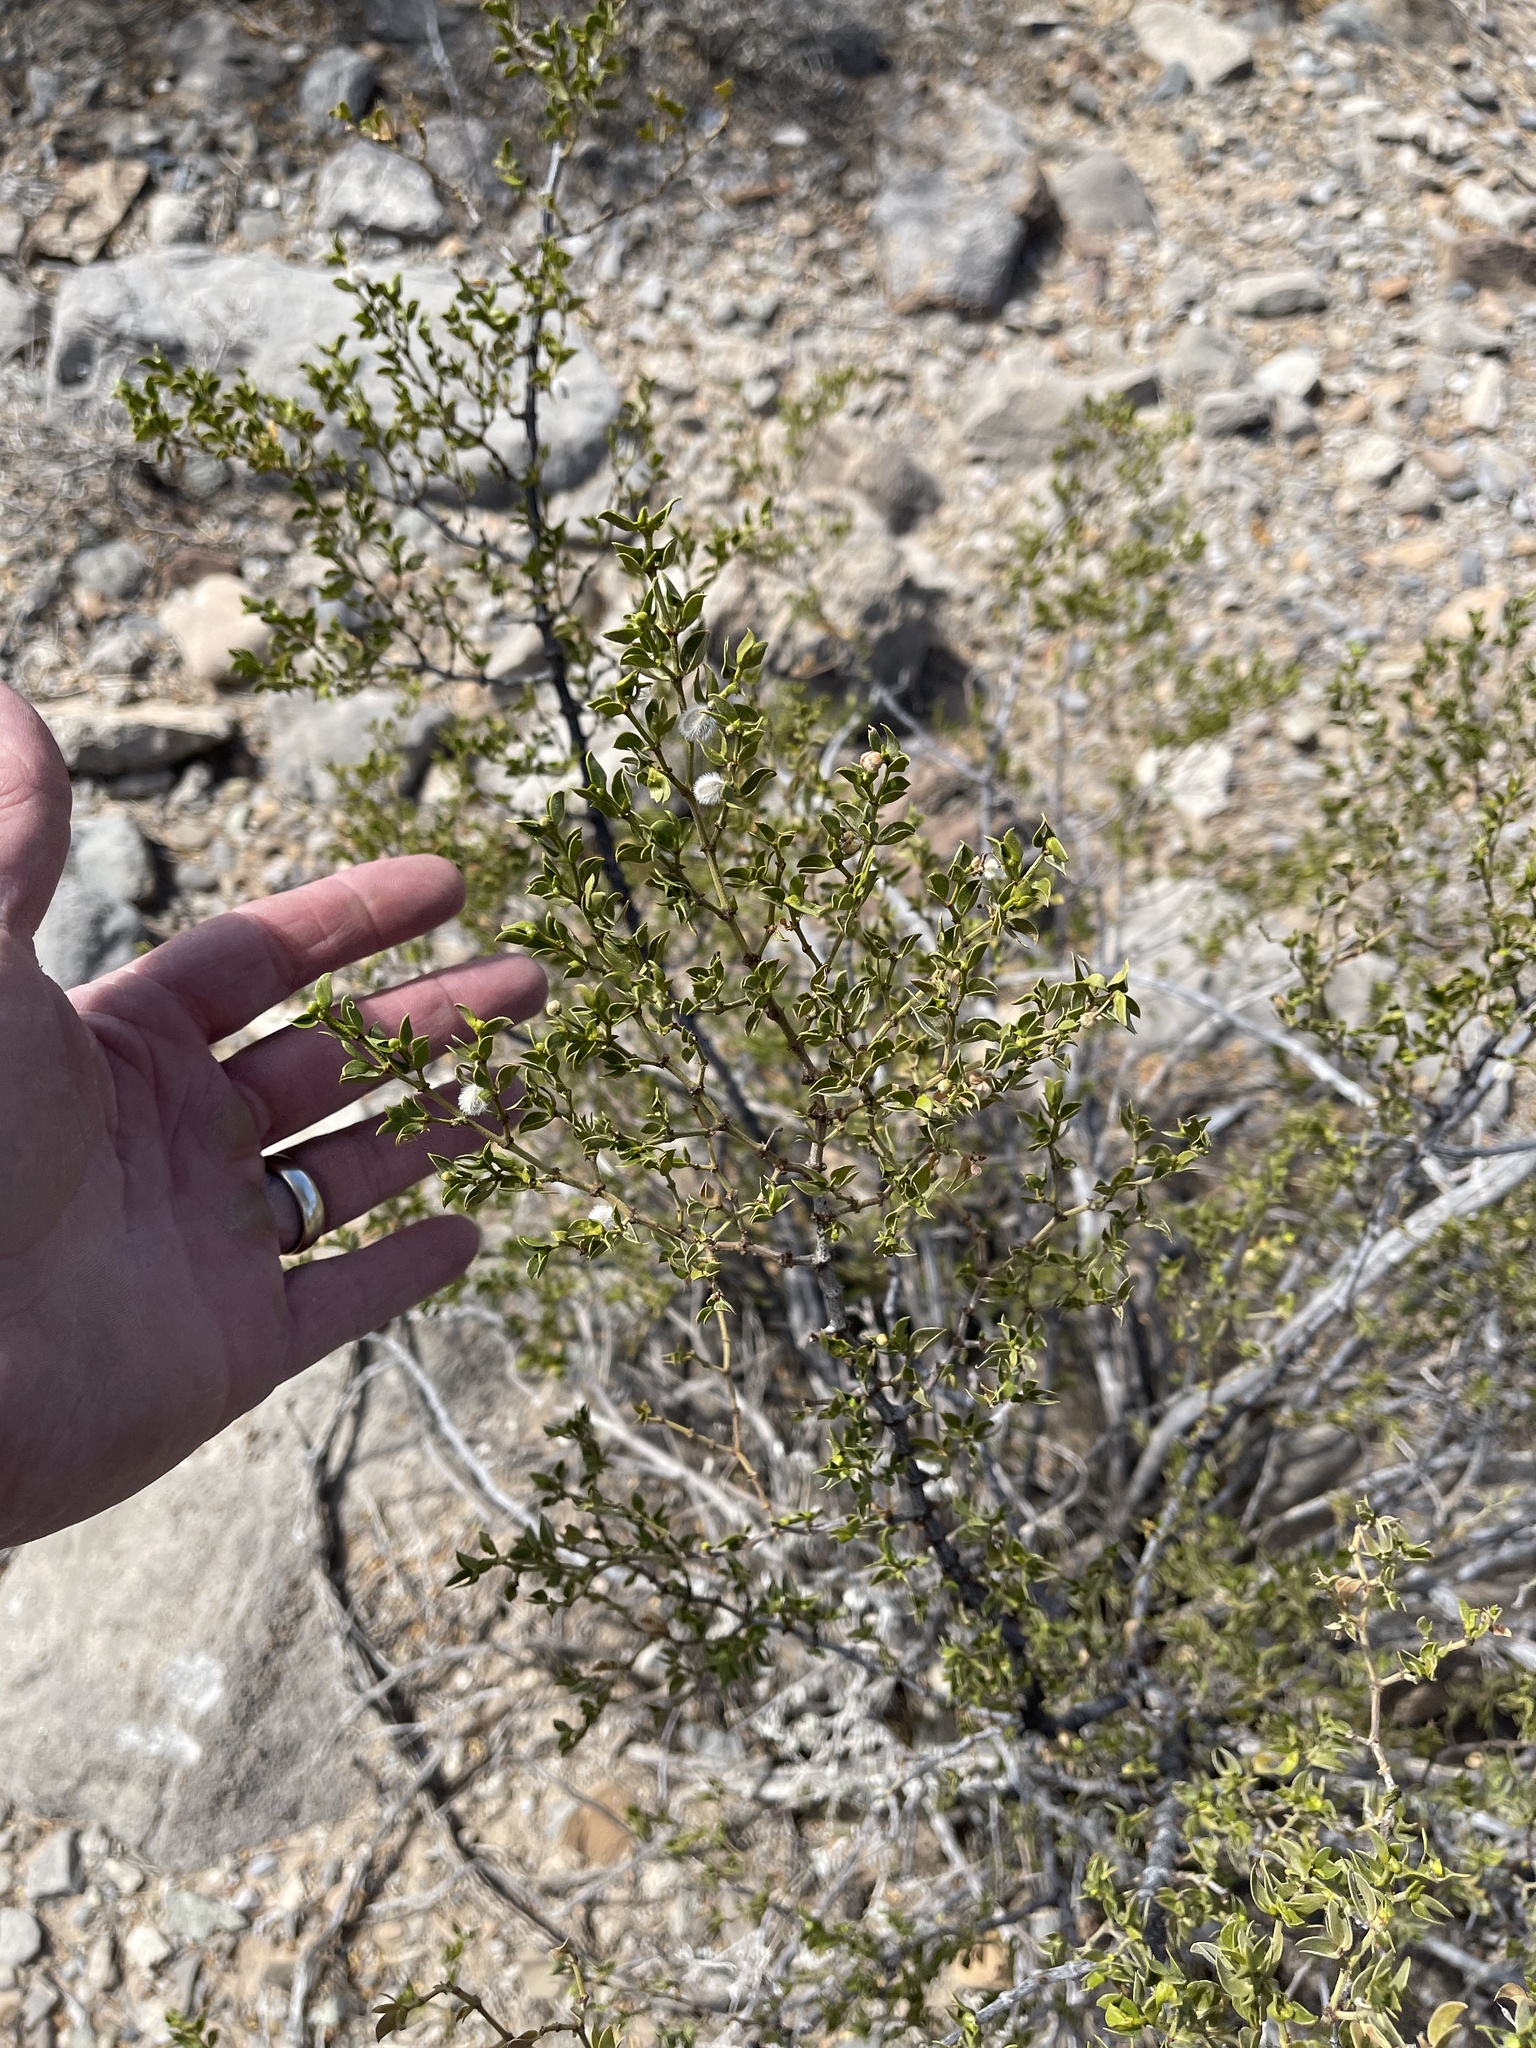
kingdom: Plantae
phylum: Tracheophyta
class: Magnoliopsida
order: Zygophyllales
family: Zygophyllaceae
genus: Larrea
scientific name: Larrea tridentata
